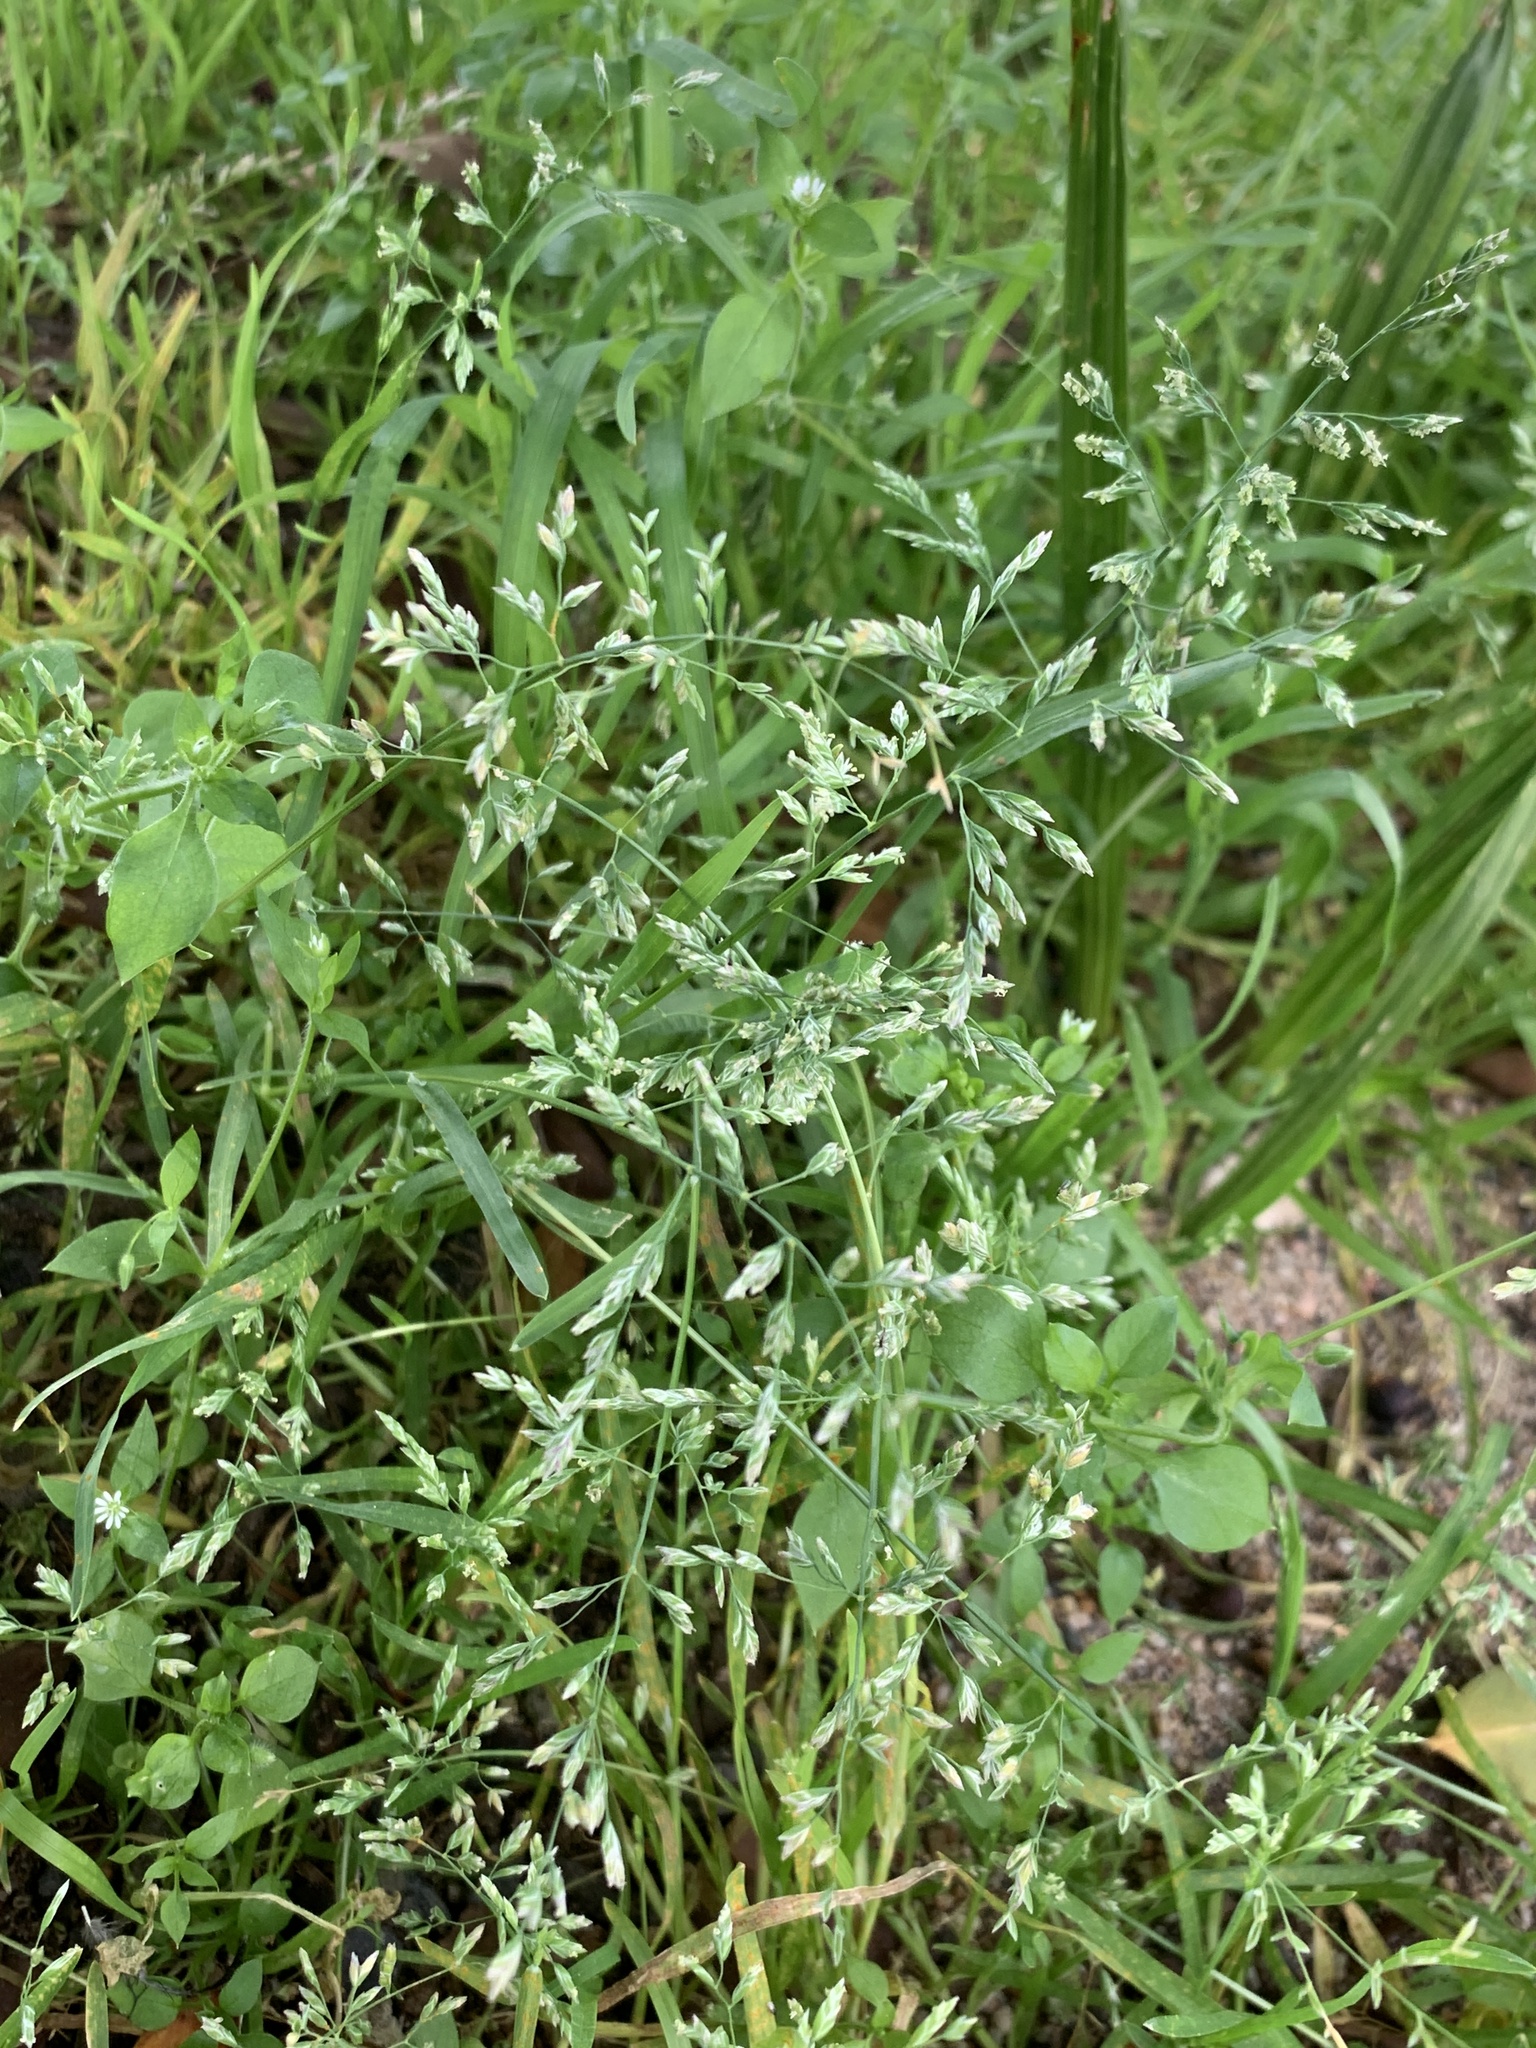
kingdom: Plantae
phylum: Tracheophyta
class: Liliopsida
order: Poales
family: Poaceae
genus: Poa
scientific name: Poa annua
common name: Annual bluegrass
